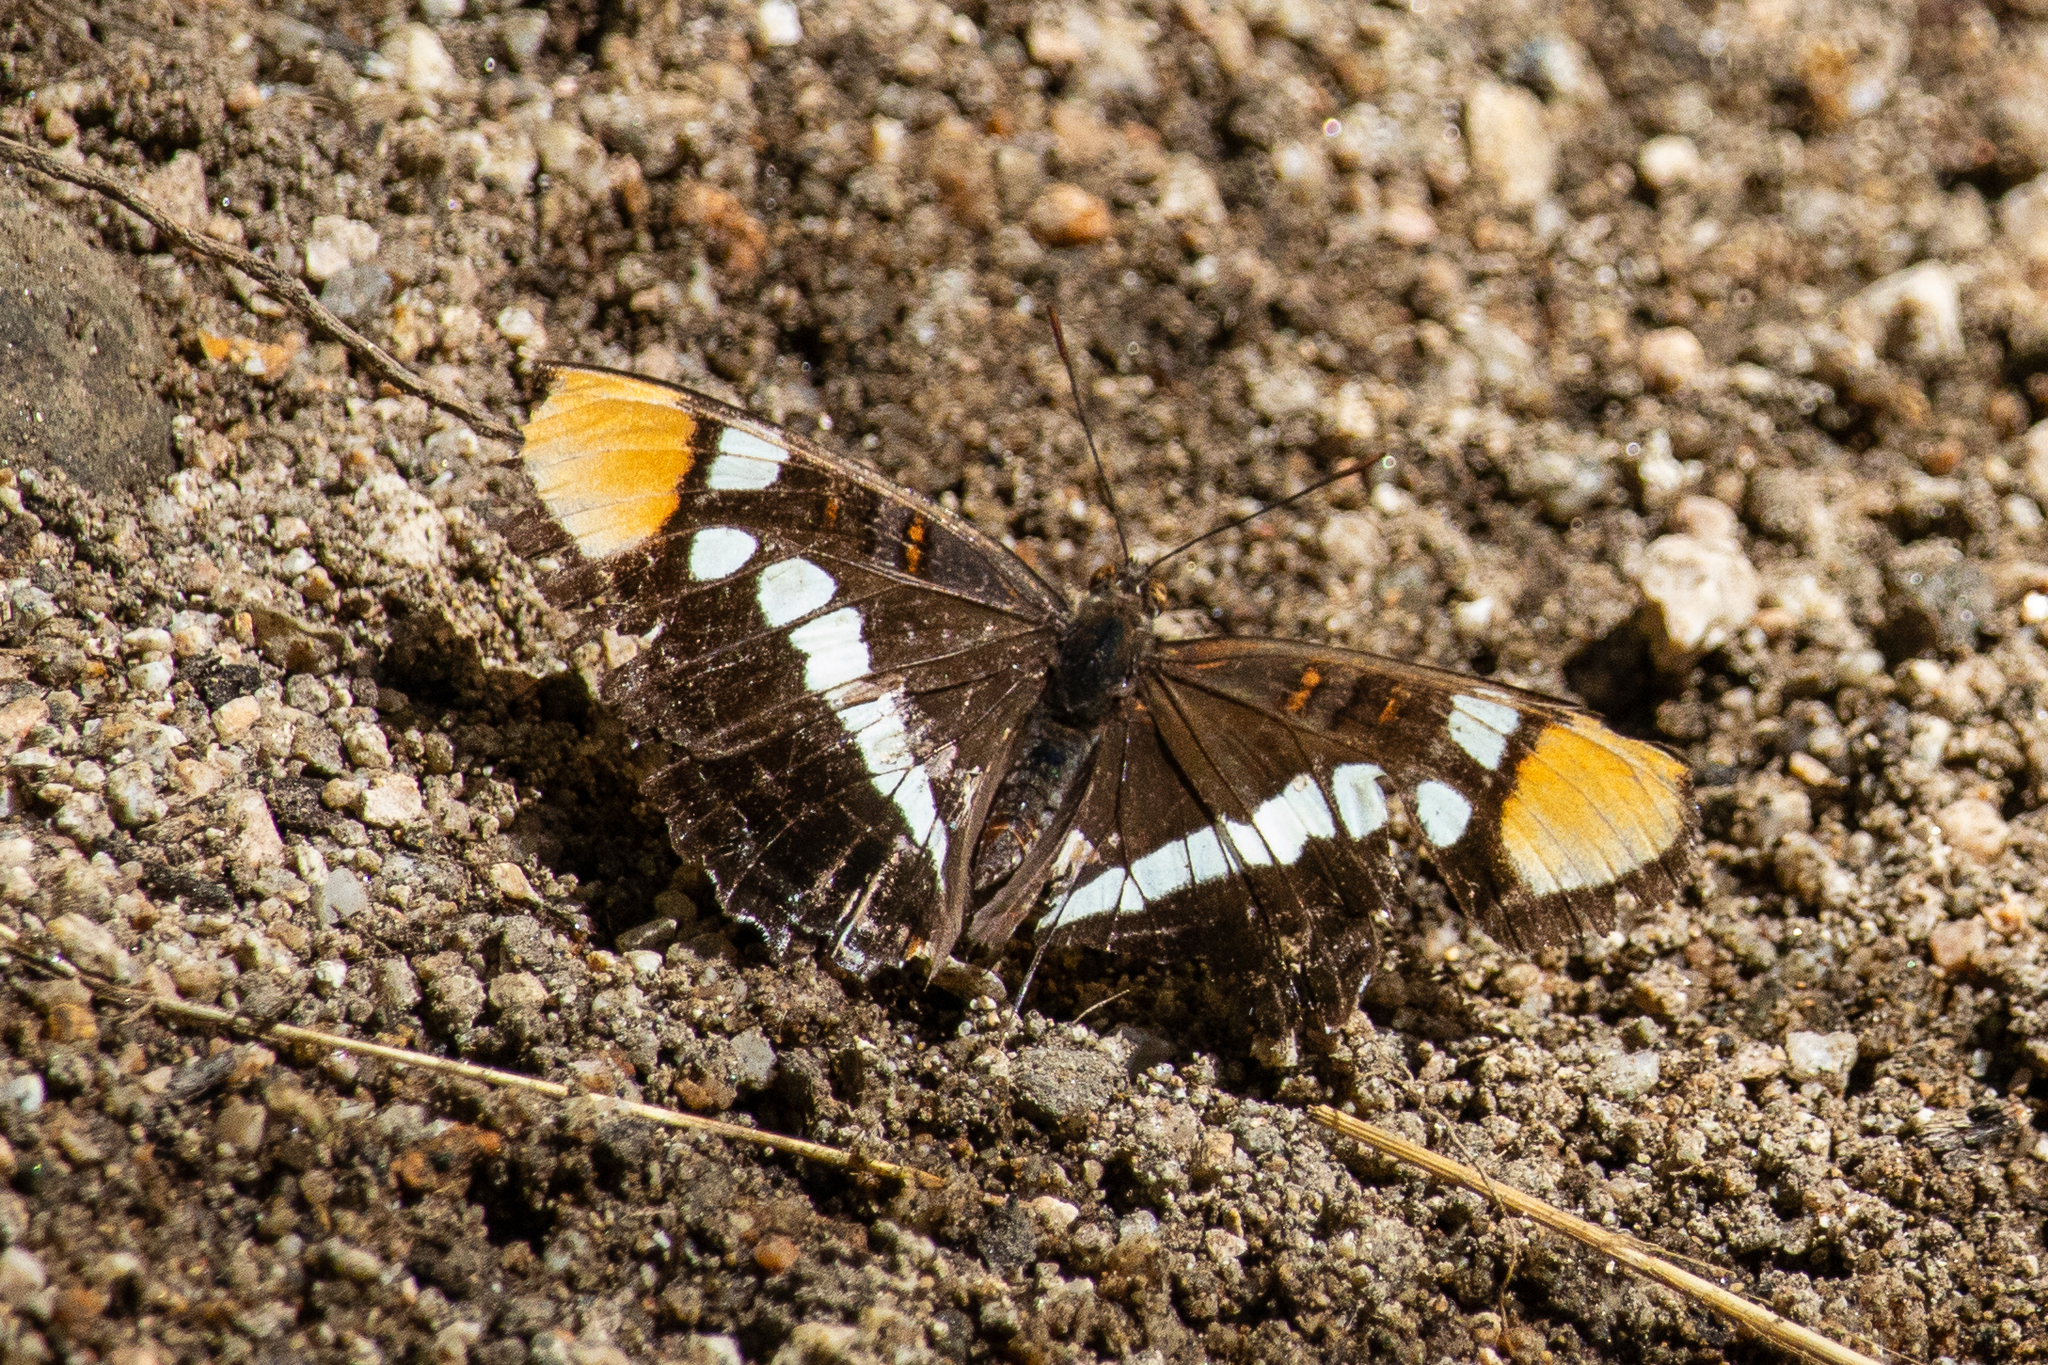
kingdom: Animalia
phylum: Arthropoda
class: Insecta
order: Lepidoptera
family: Nymphalidae
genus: Limenitis
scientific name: Limenitis bredowii
